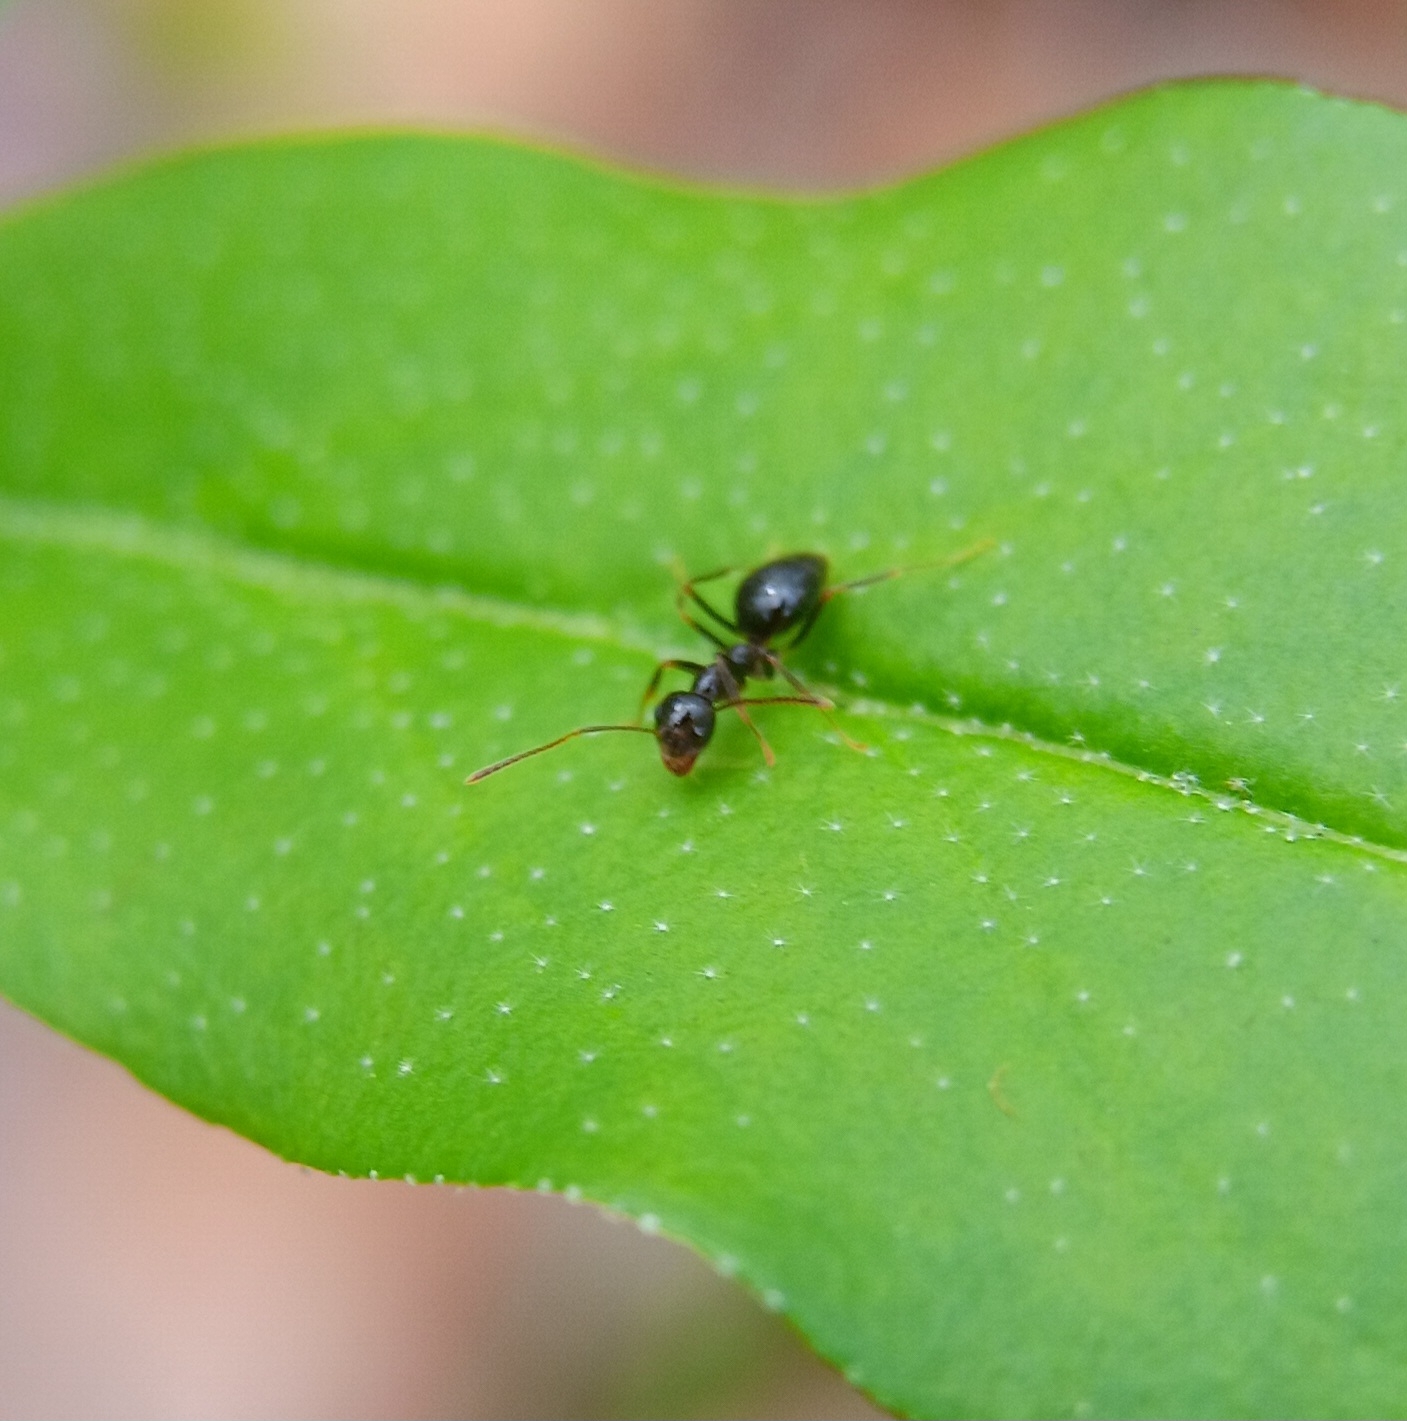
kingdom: Animalia
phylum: Arthropoda
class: Insecta
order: Hymenoptera
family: Formicidae
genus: Prenolepis
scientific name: Prenolepis imparis
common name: Small honey ant
